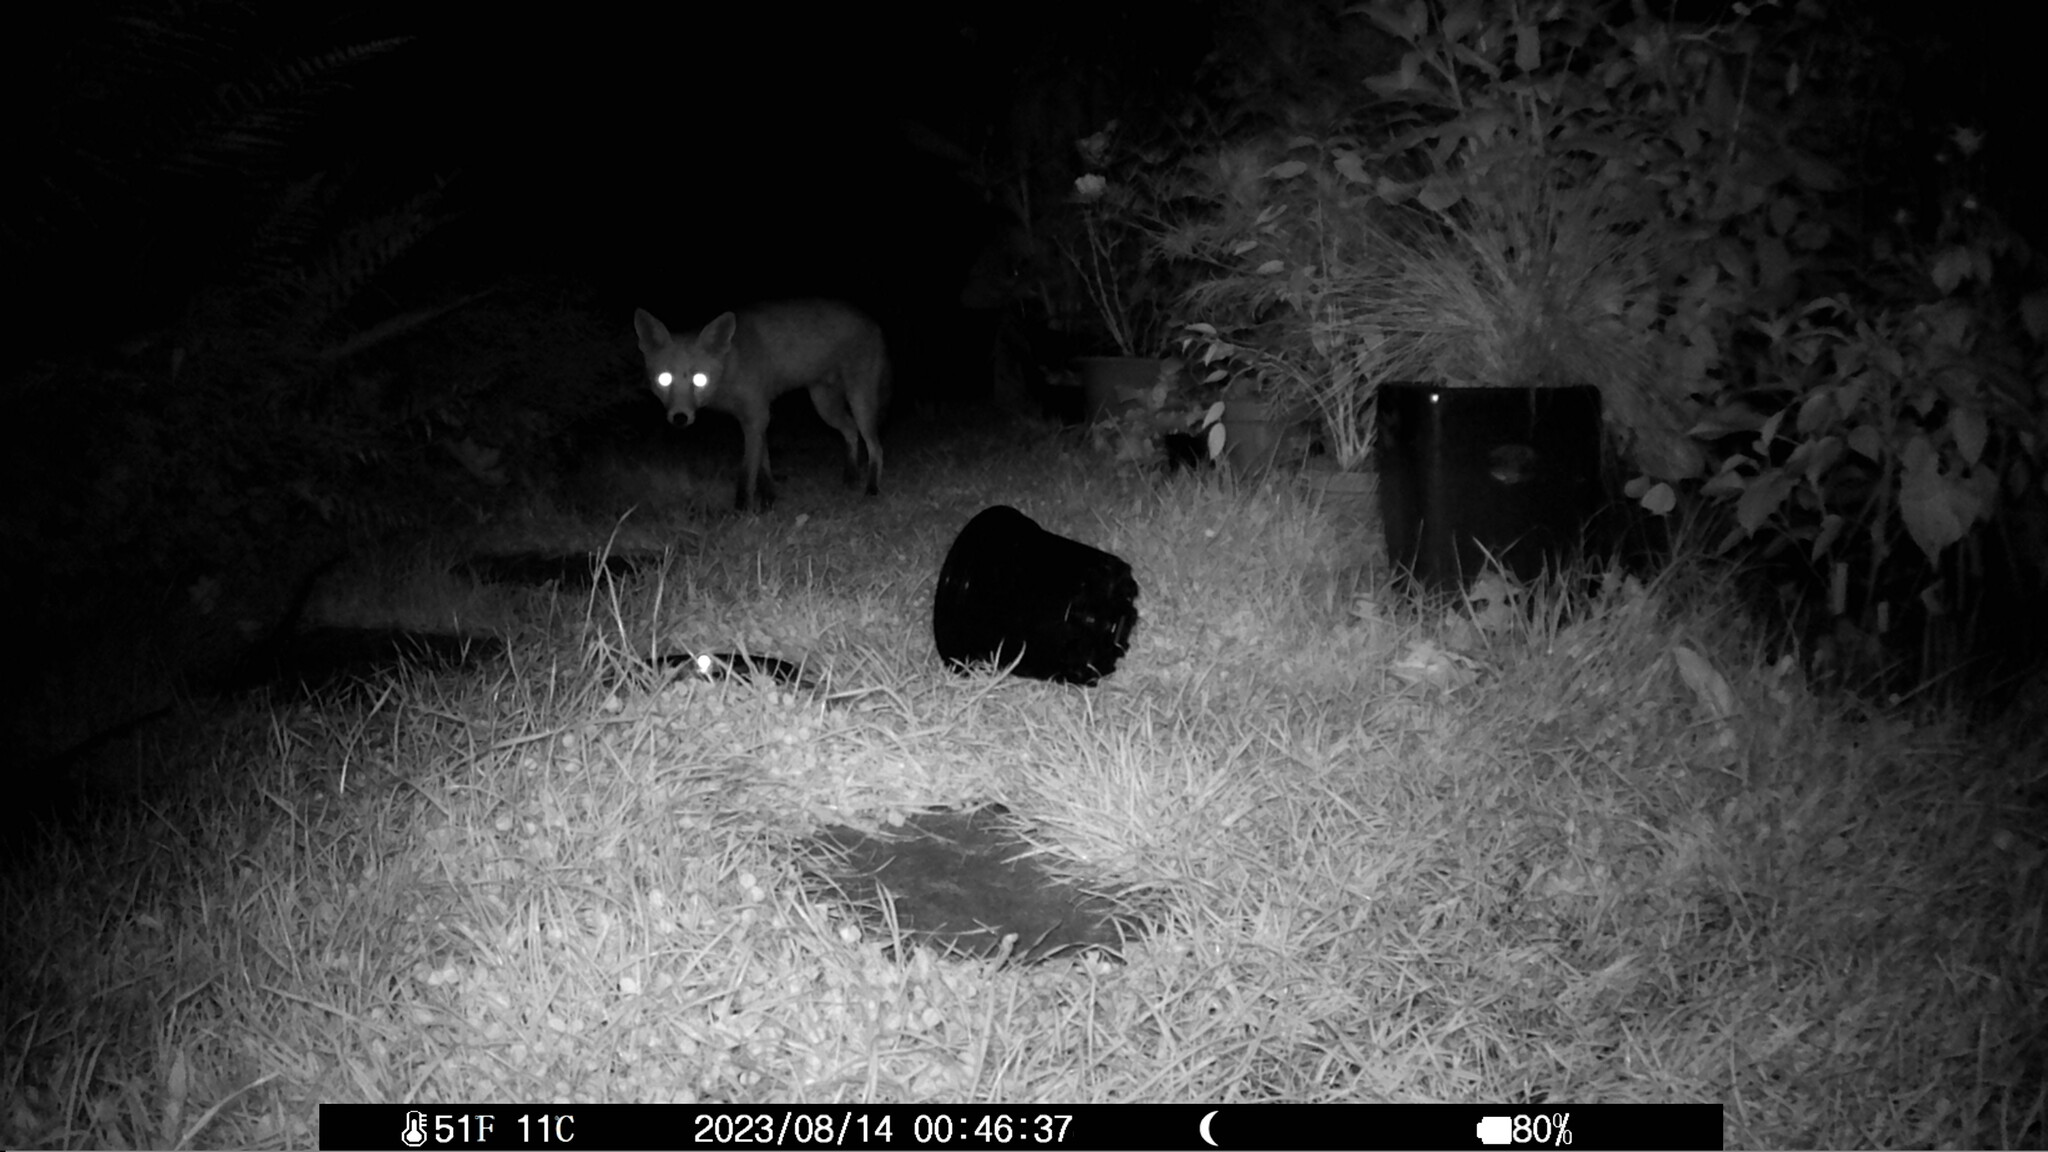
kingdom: Animalia
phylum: Chordata
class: Mammalia
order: Carnivora
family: Canidae
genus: Vulpes
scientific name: Vulpes vulpes
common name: Red fox
